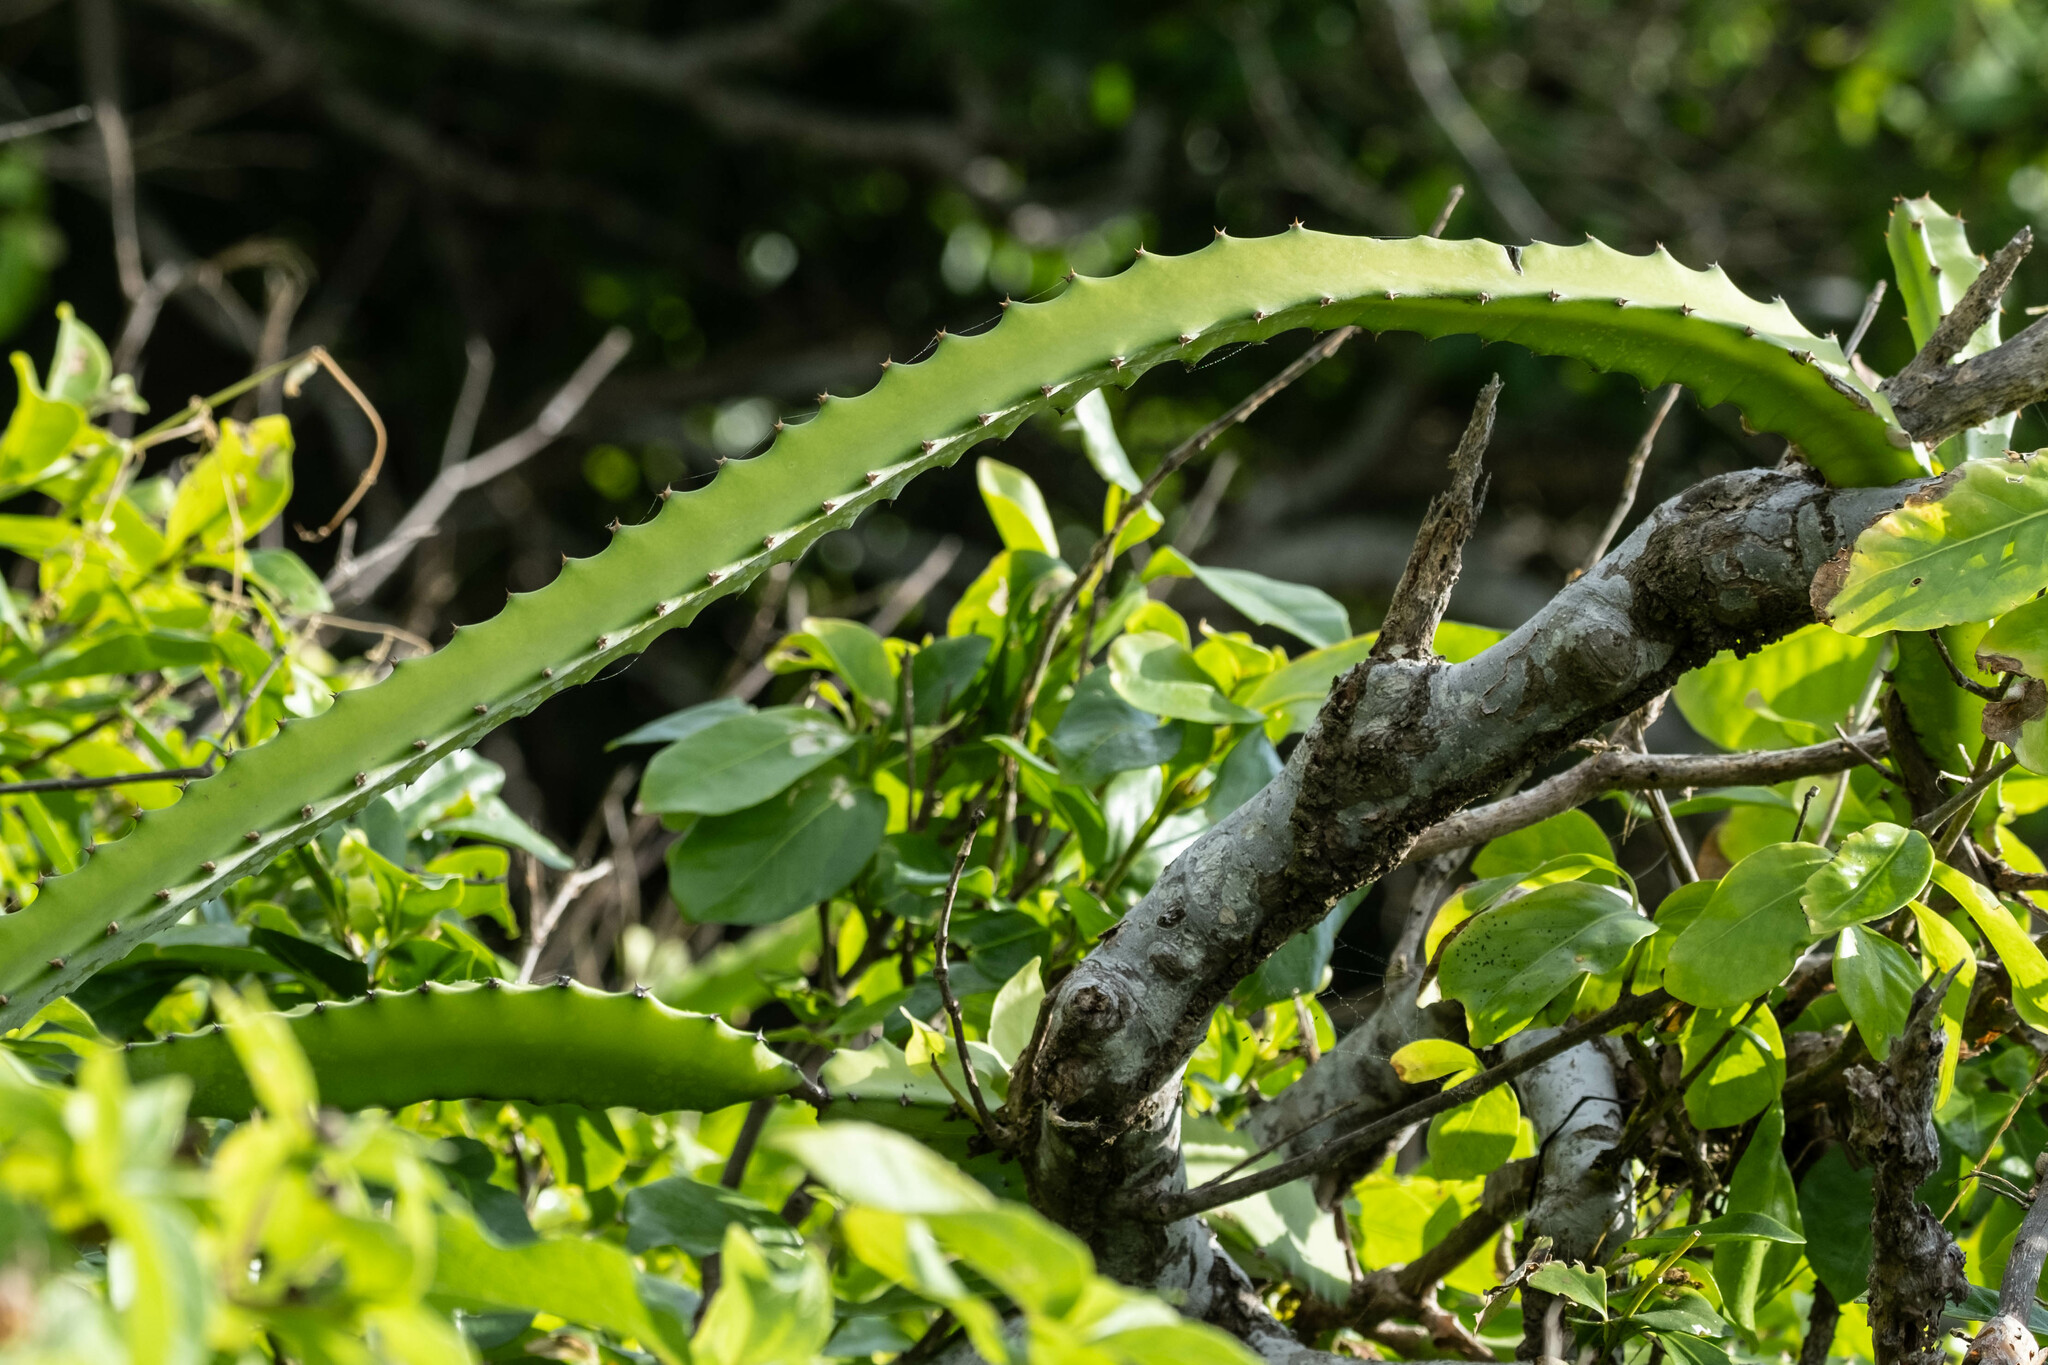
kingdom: Plantae
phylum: Tracheophyta
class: Magnoliopsida
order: Caryophyllales
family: Cactaceae
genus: Selenicereus
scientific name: Selenicereus monacanthus
